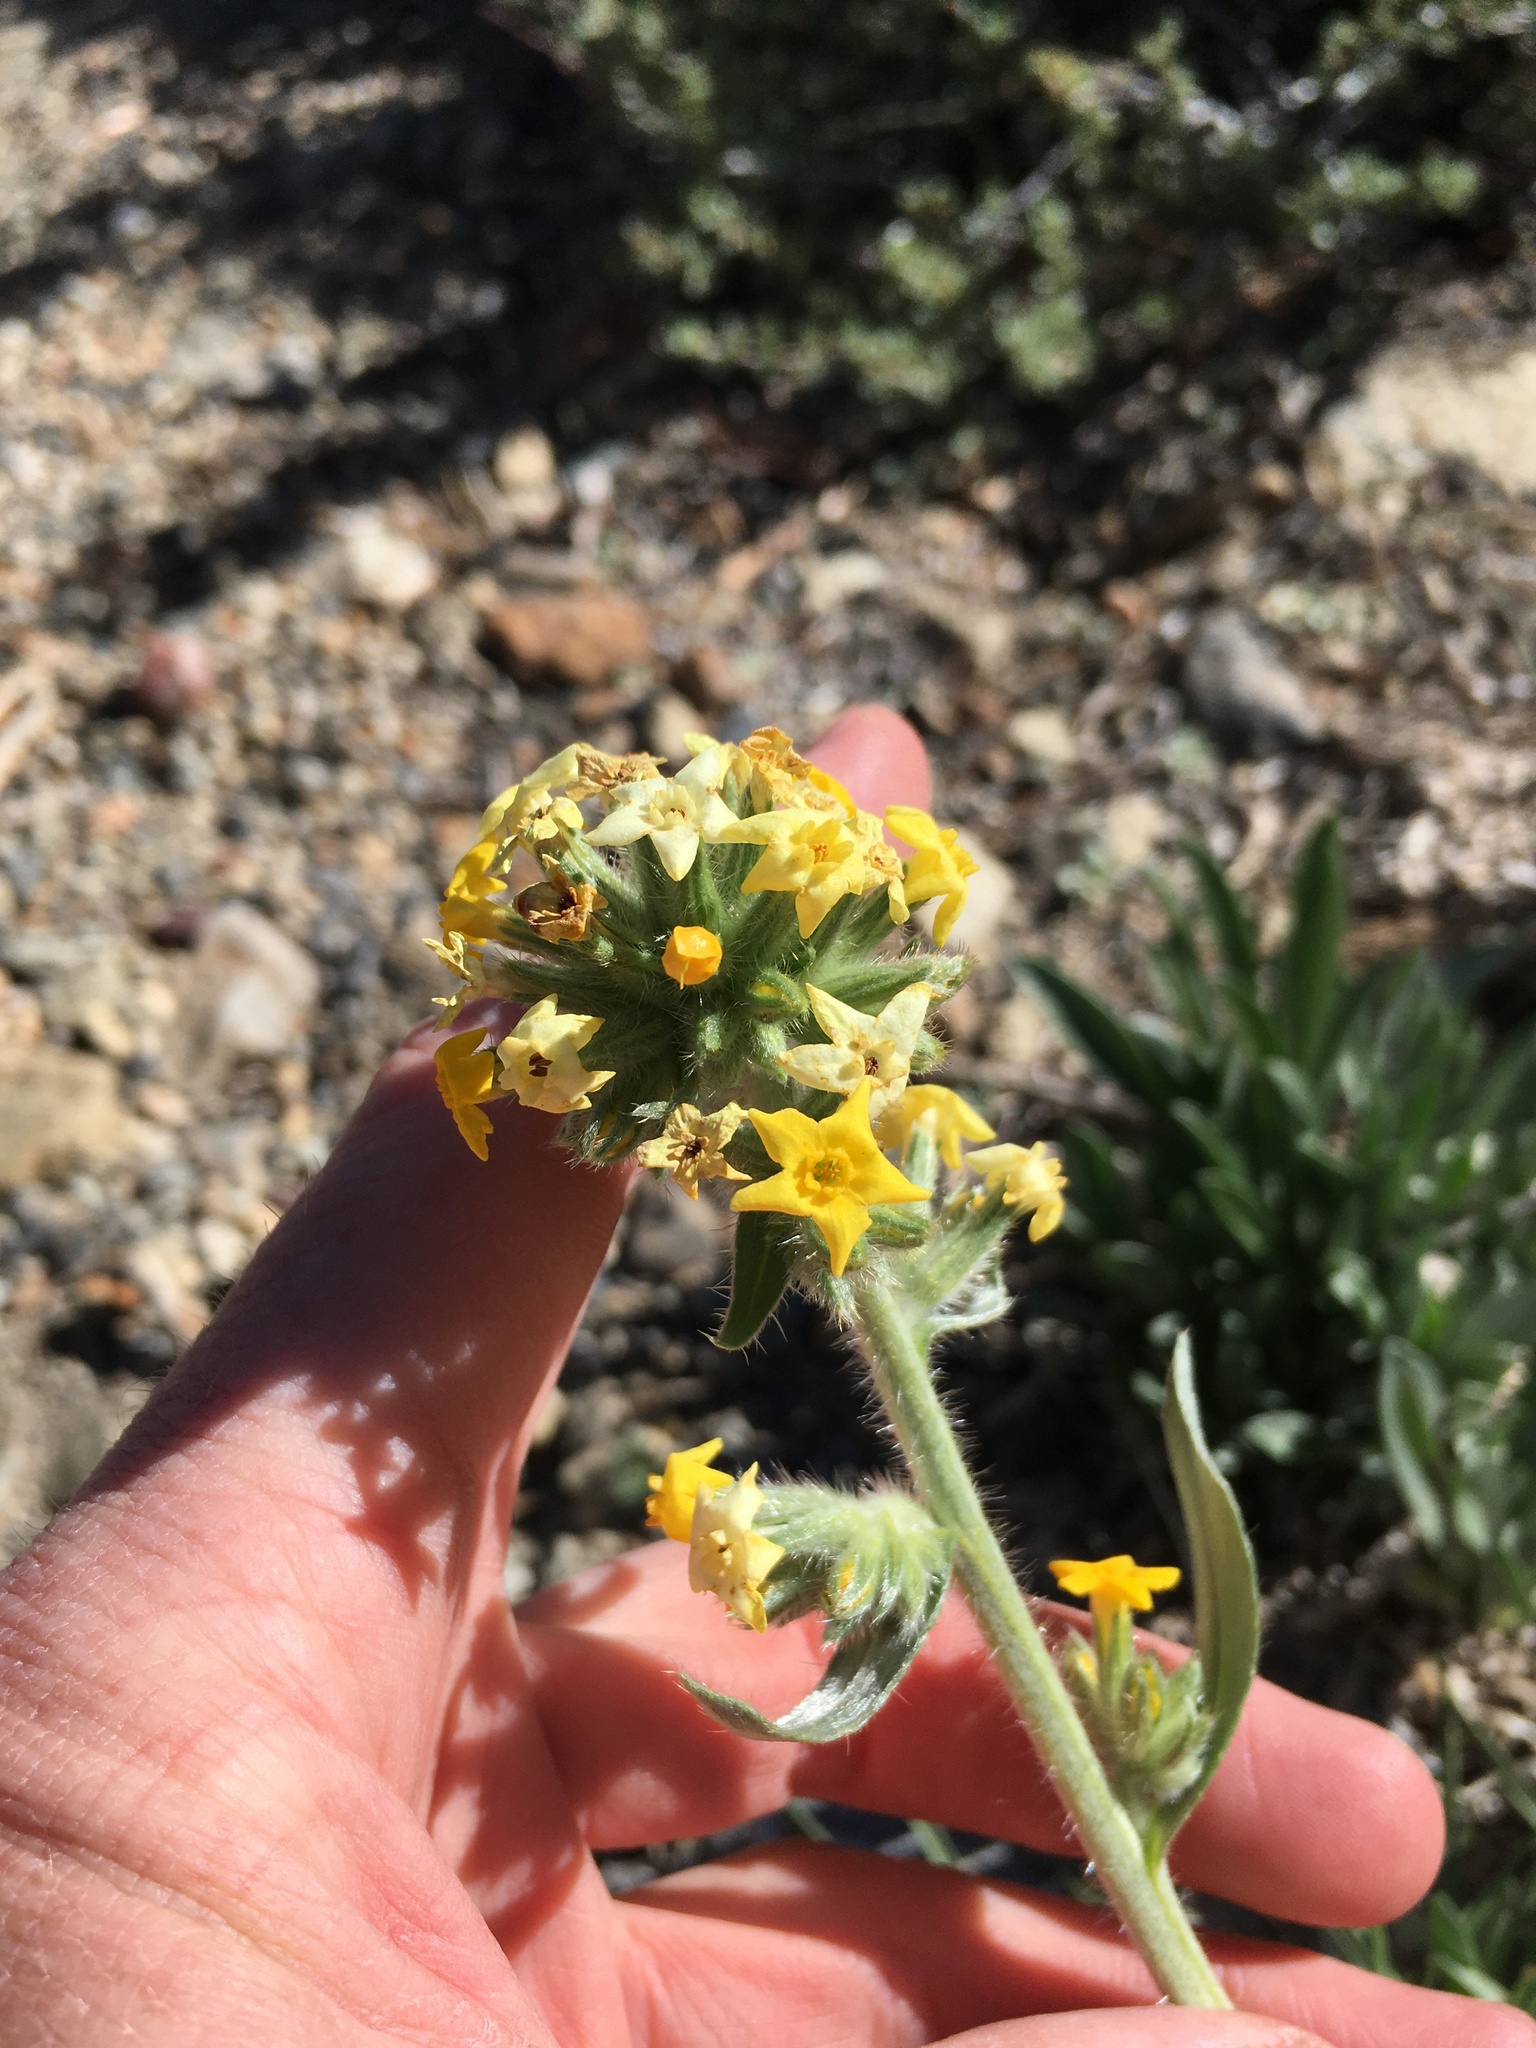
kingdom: Plantae
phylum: Tracheophyta
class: Magnoliopsida
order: Boraginales
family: Boraginaceae
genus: Oreocarya
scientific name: Oreocarya confertiflora
